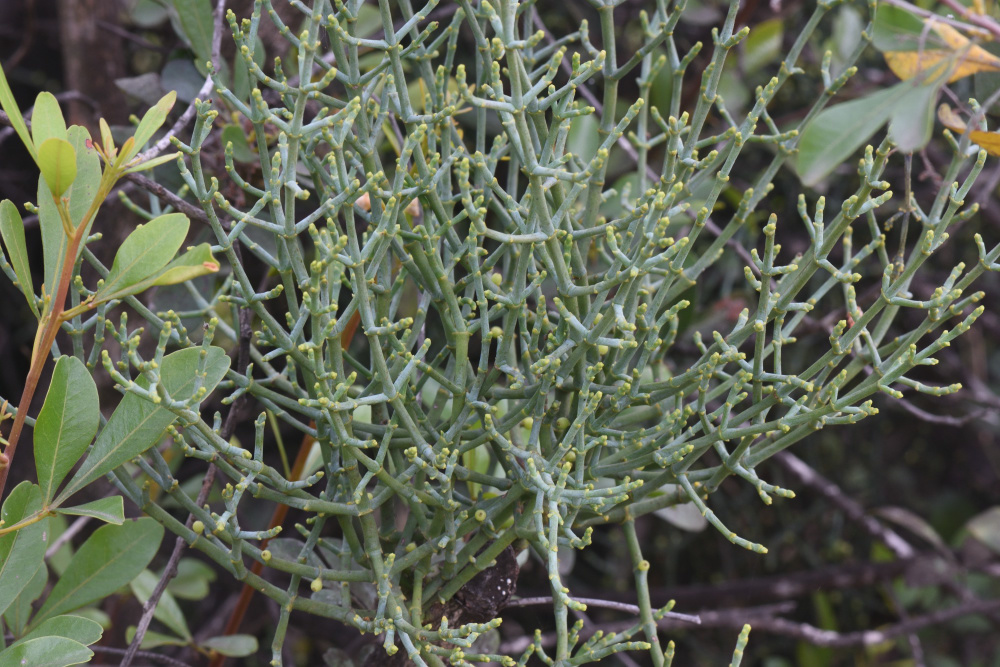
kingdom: Plantae
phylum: Tracheophyta
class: Magnoliopsida
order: Sapindales
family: Anacardiaceae
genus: Searsia
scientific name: Searsia lucida
